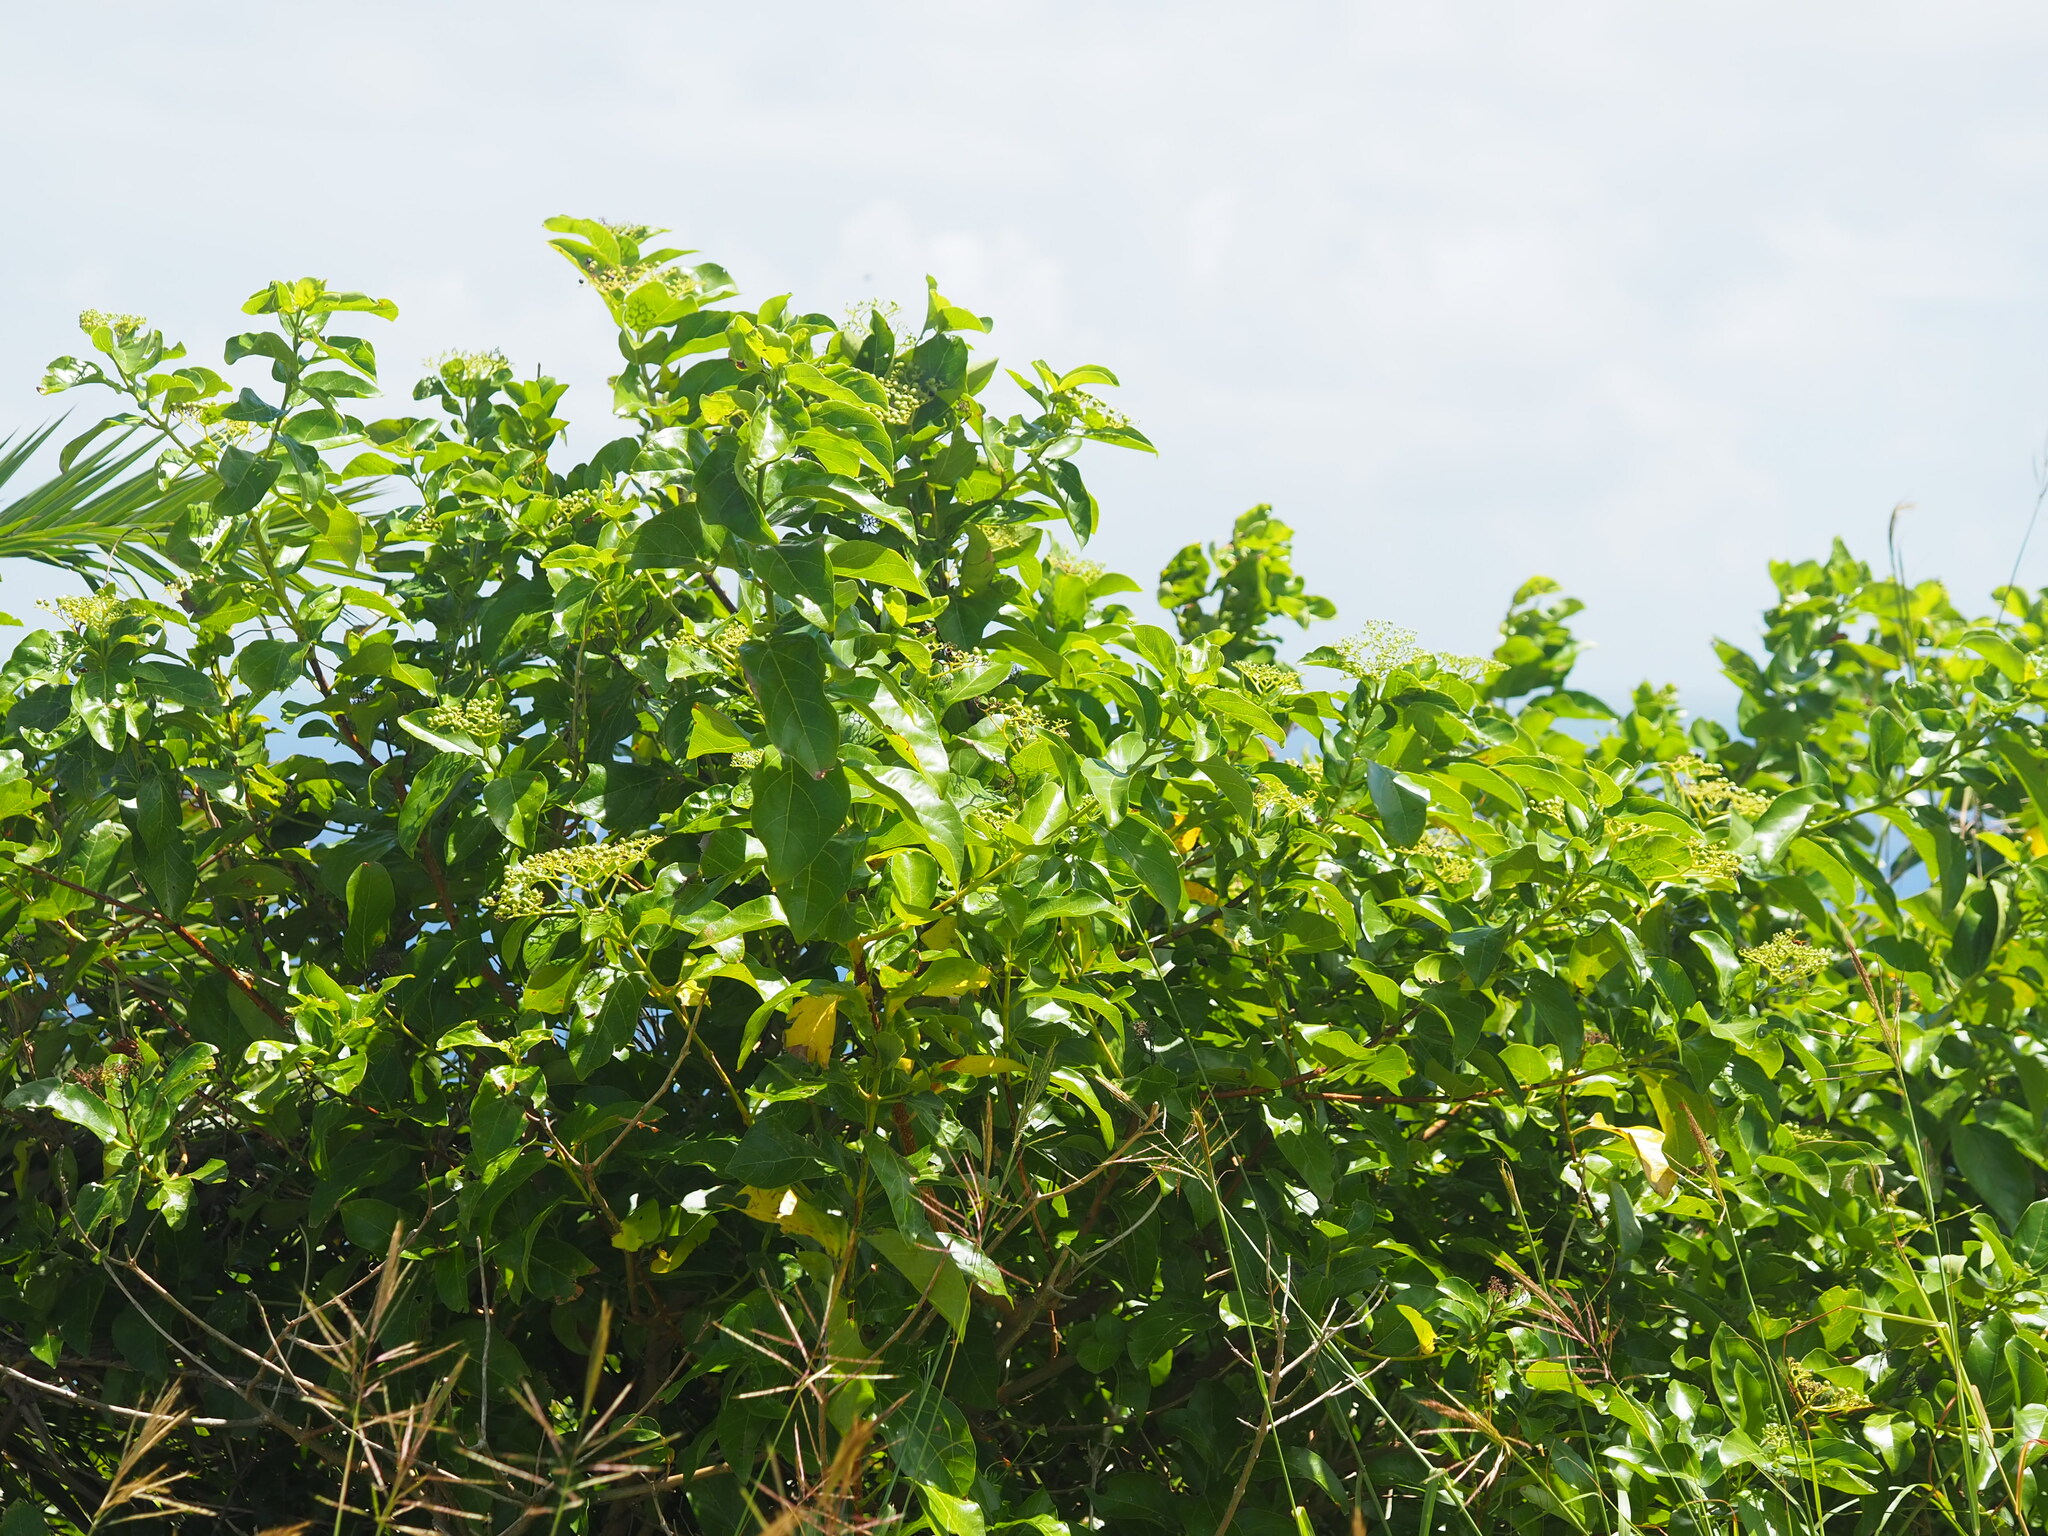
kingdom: Plantae
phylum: Tracheophyta
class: Magnoliopsida
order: Lamiales
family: Lamiaceae
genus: Premna
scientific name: Premna serratifolia
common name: Bastard guelder
